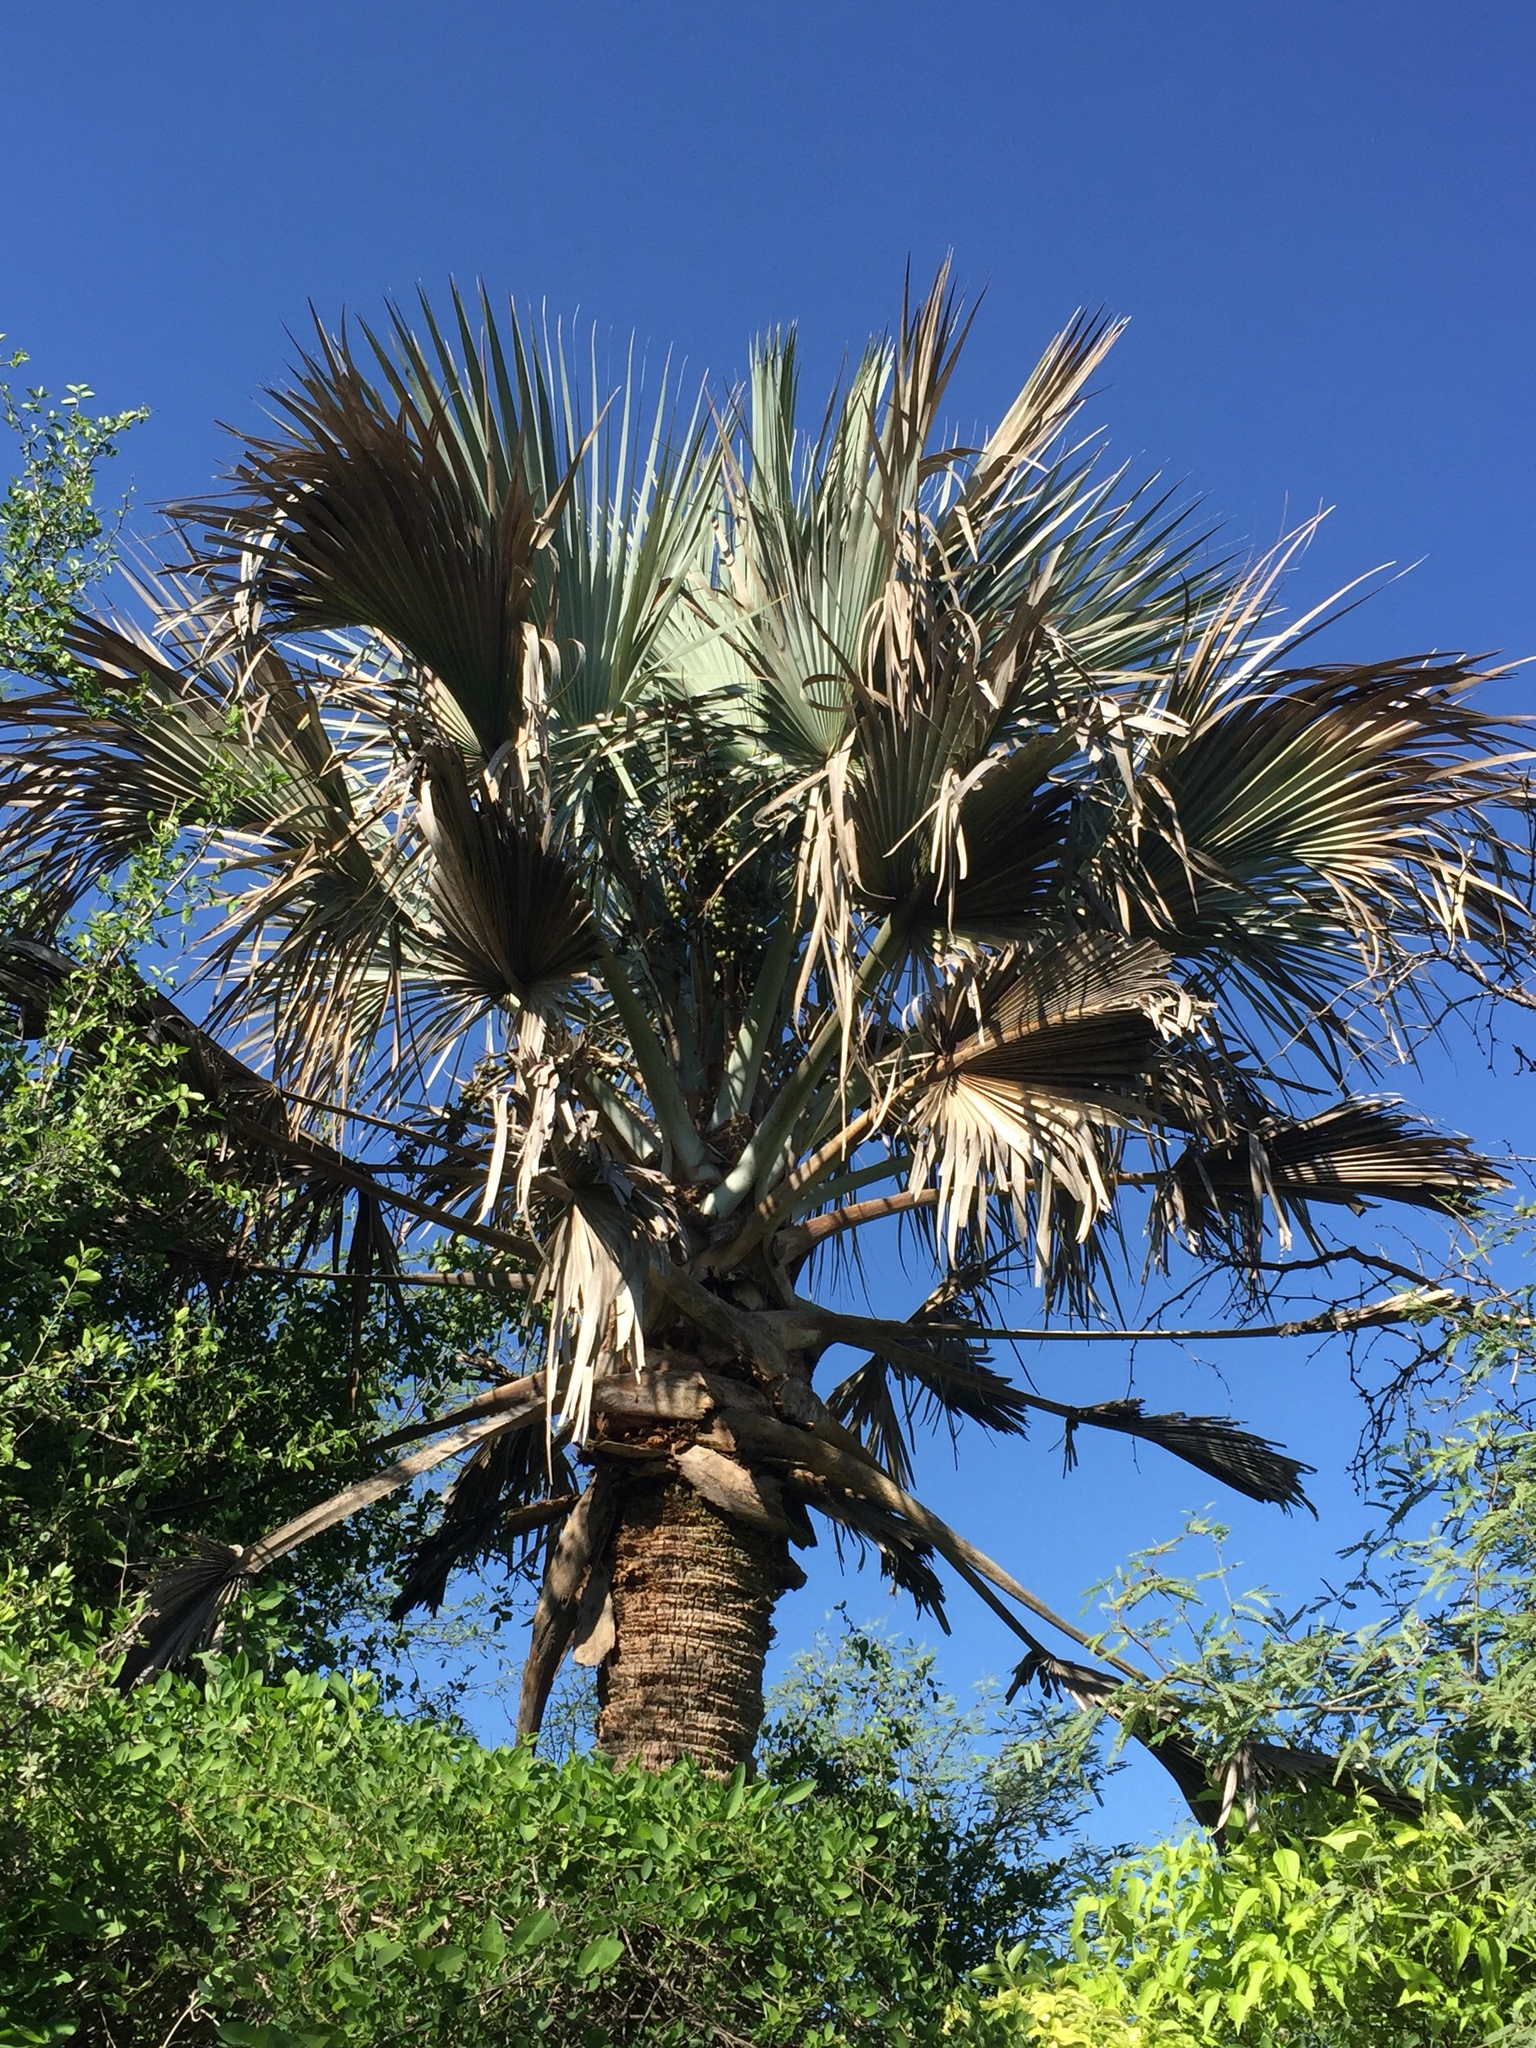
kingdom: Plantae
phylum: Tracheophyta
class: Liliopsida
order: Arecales
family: Arecaceae
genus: Sabal
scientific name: Sabal uresana
